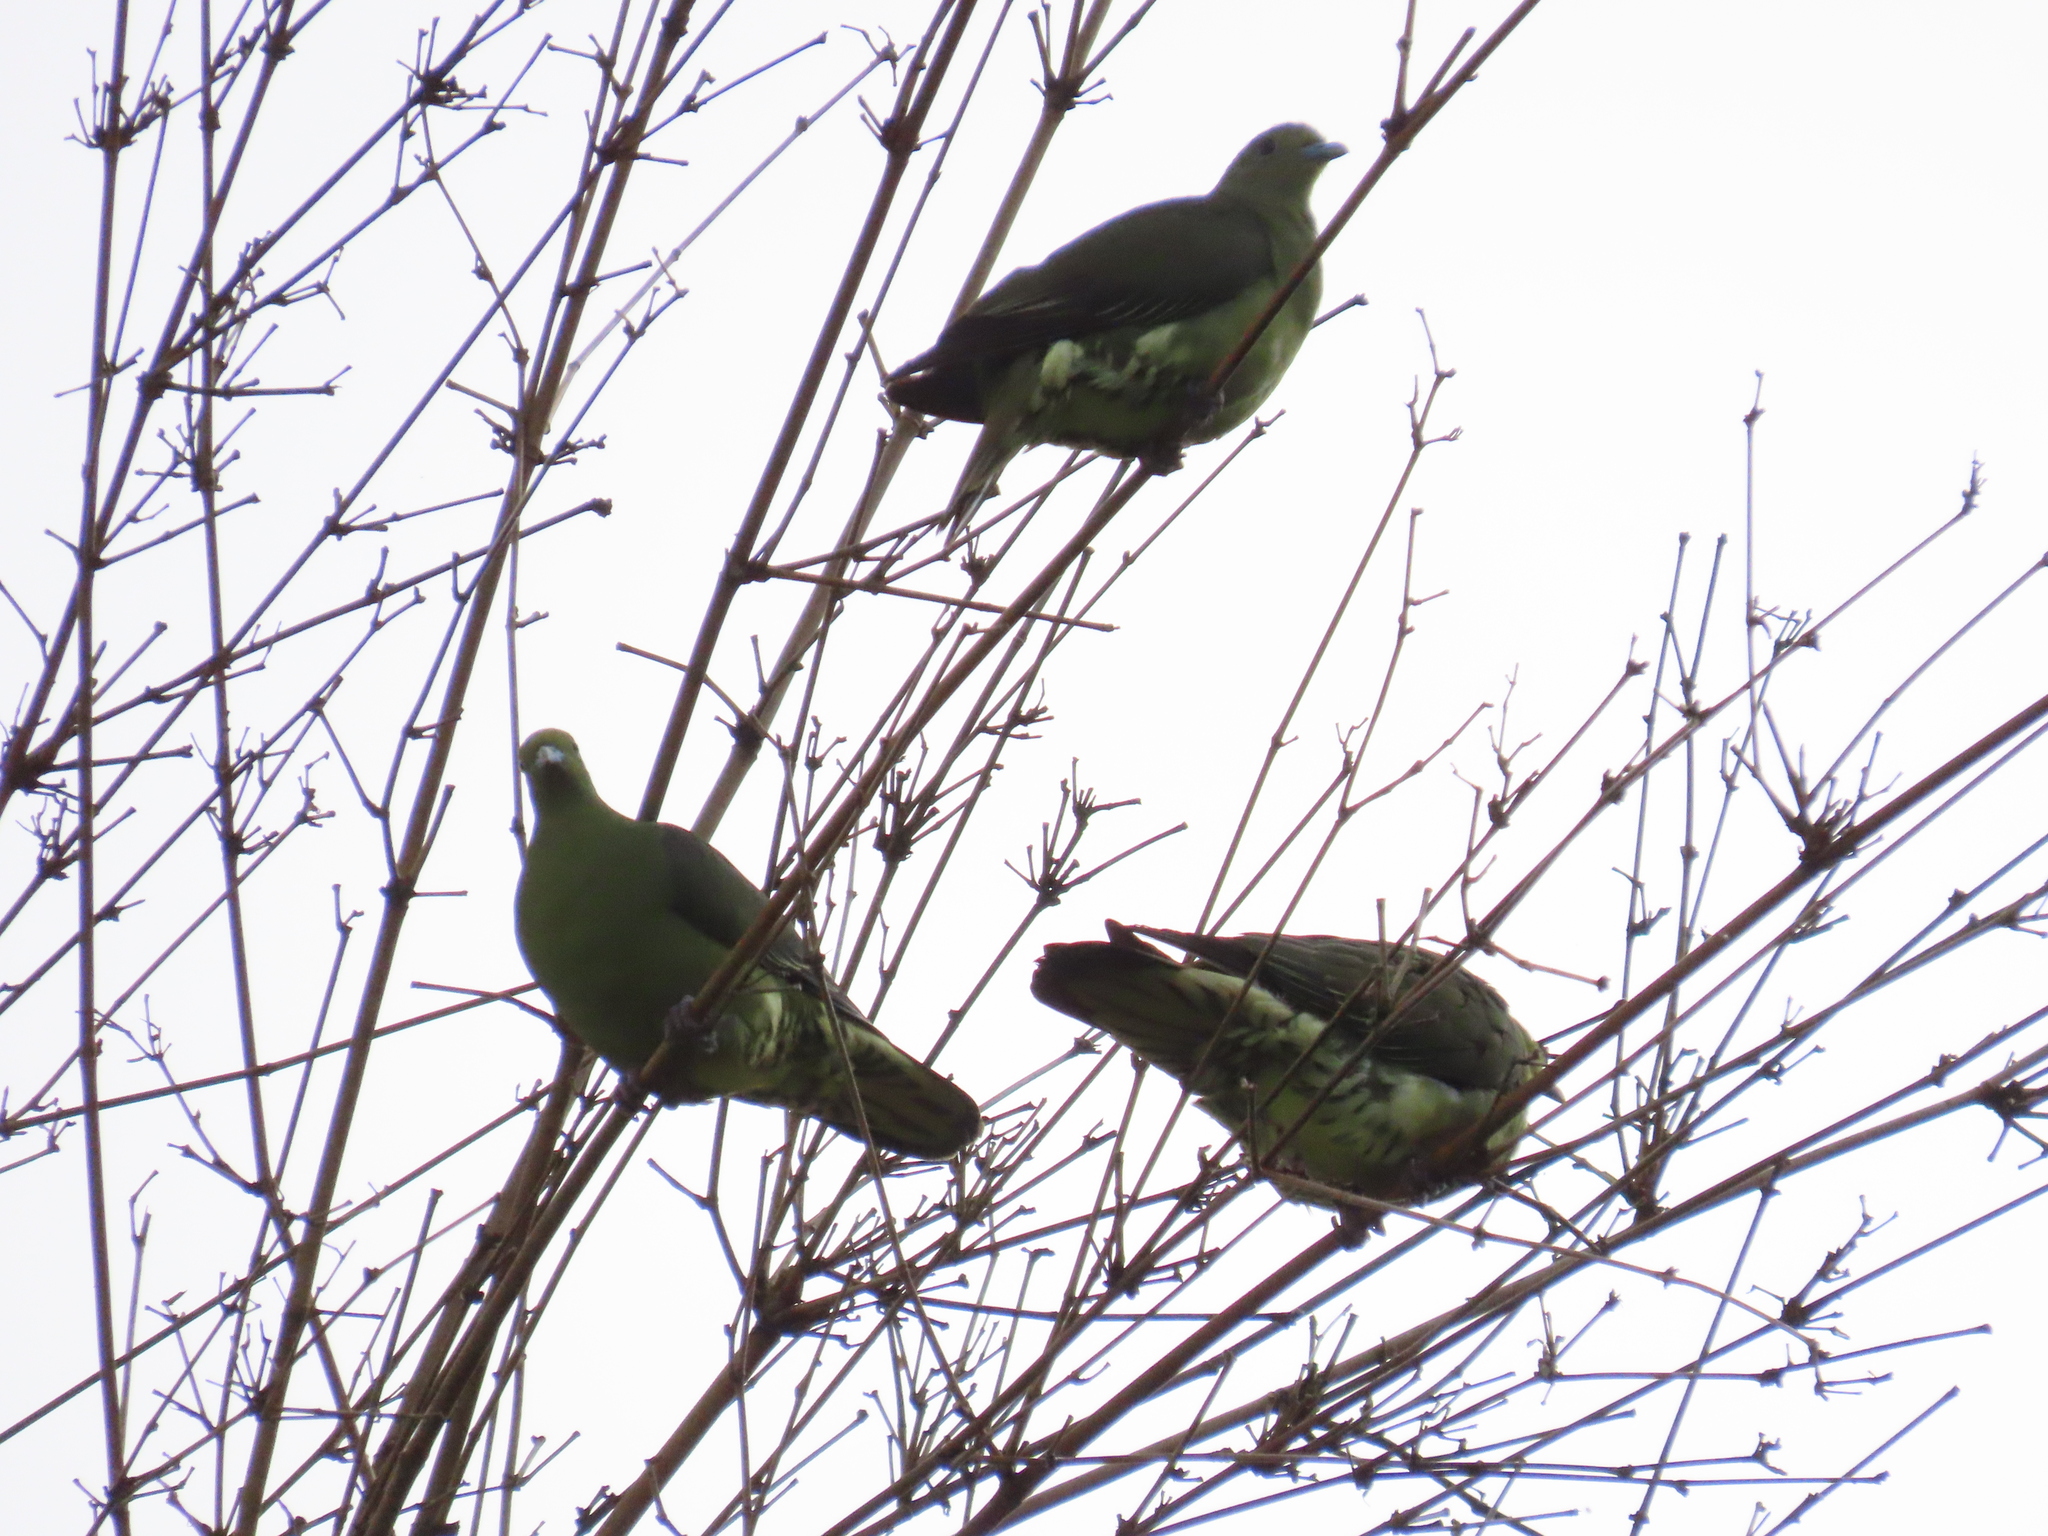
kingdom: Animalia
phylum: Chordata
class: Aves
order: Columbiformes
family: Columbidae
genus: Treron
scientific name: Treron formosae
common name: Whistling green-pigeon
